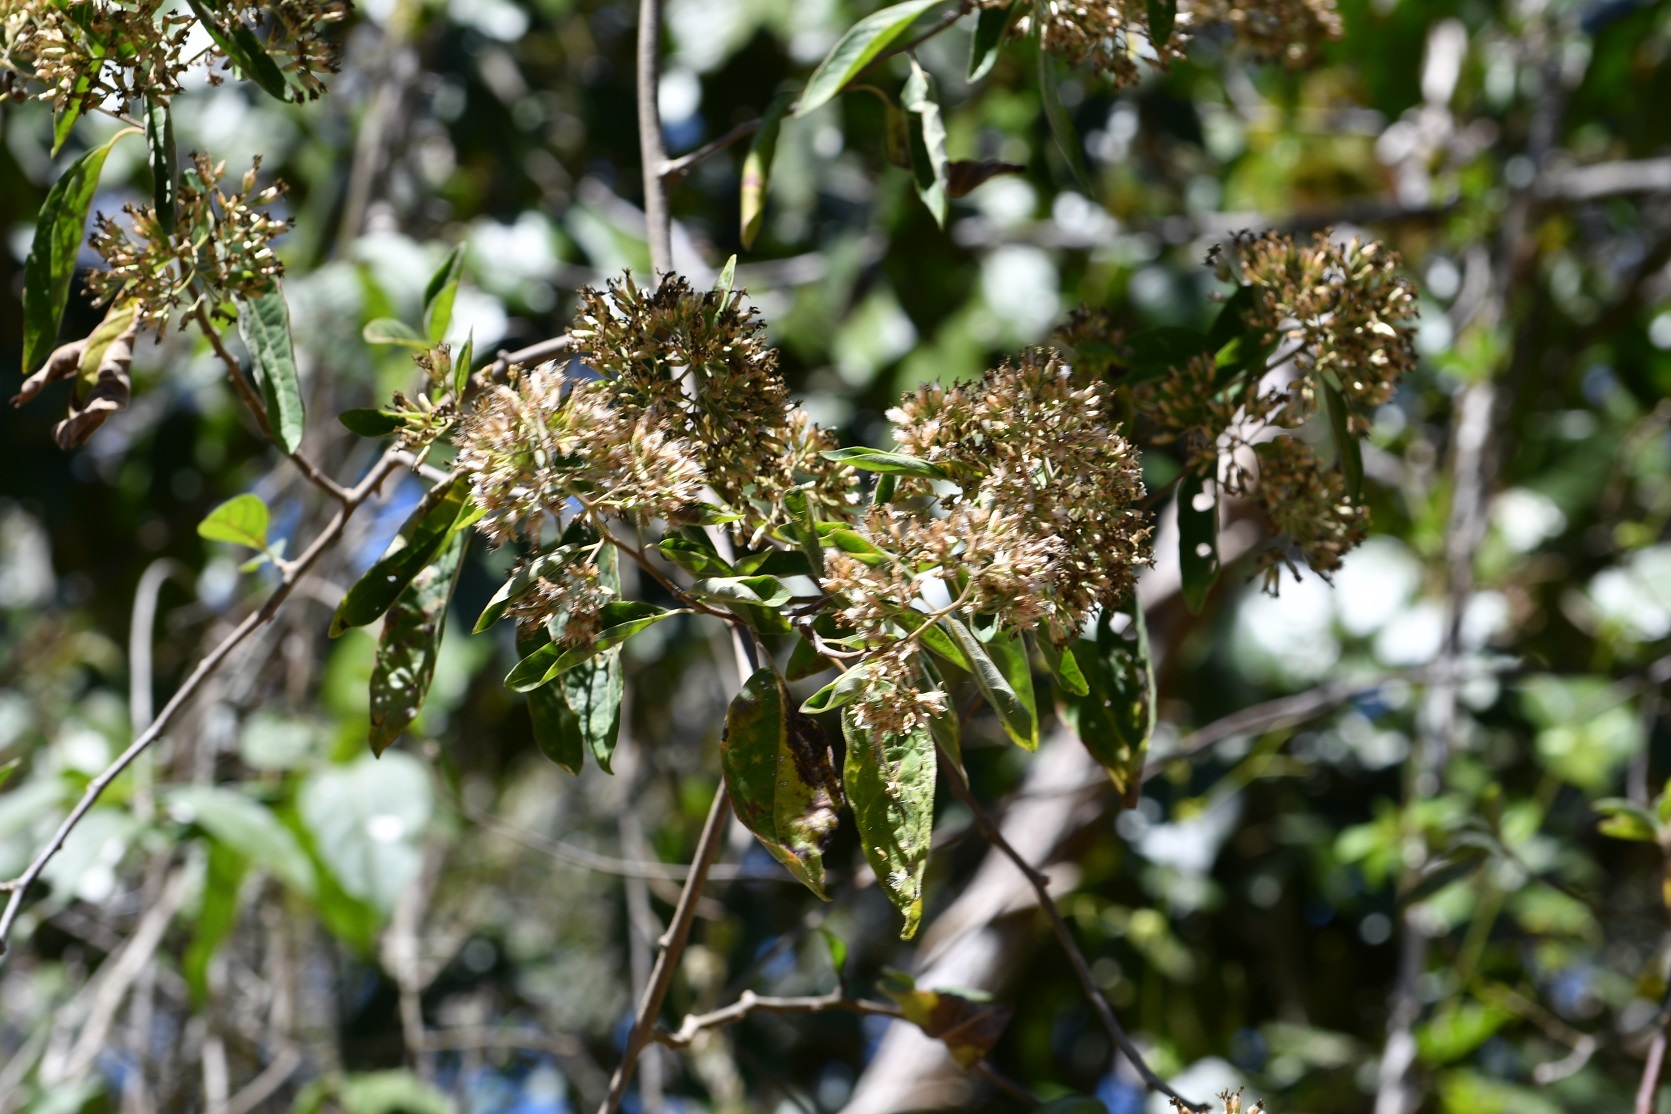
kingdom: Plantae
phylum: Tracheophyta
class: Magnoliopsida
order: Asterales
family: Asteraceae
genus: Eremosis
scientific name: Eremosis triflosculosa
